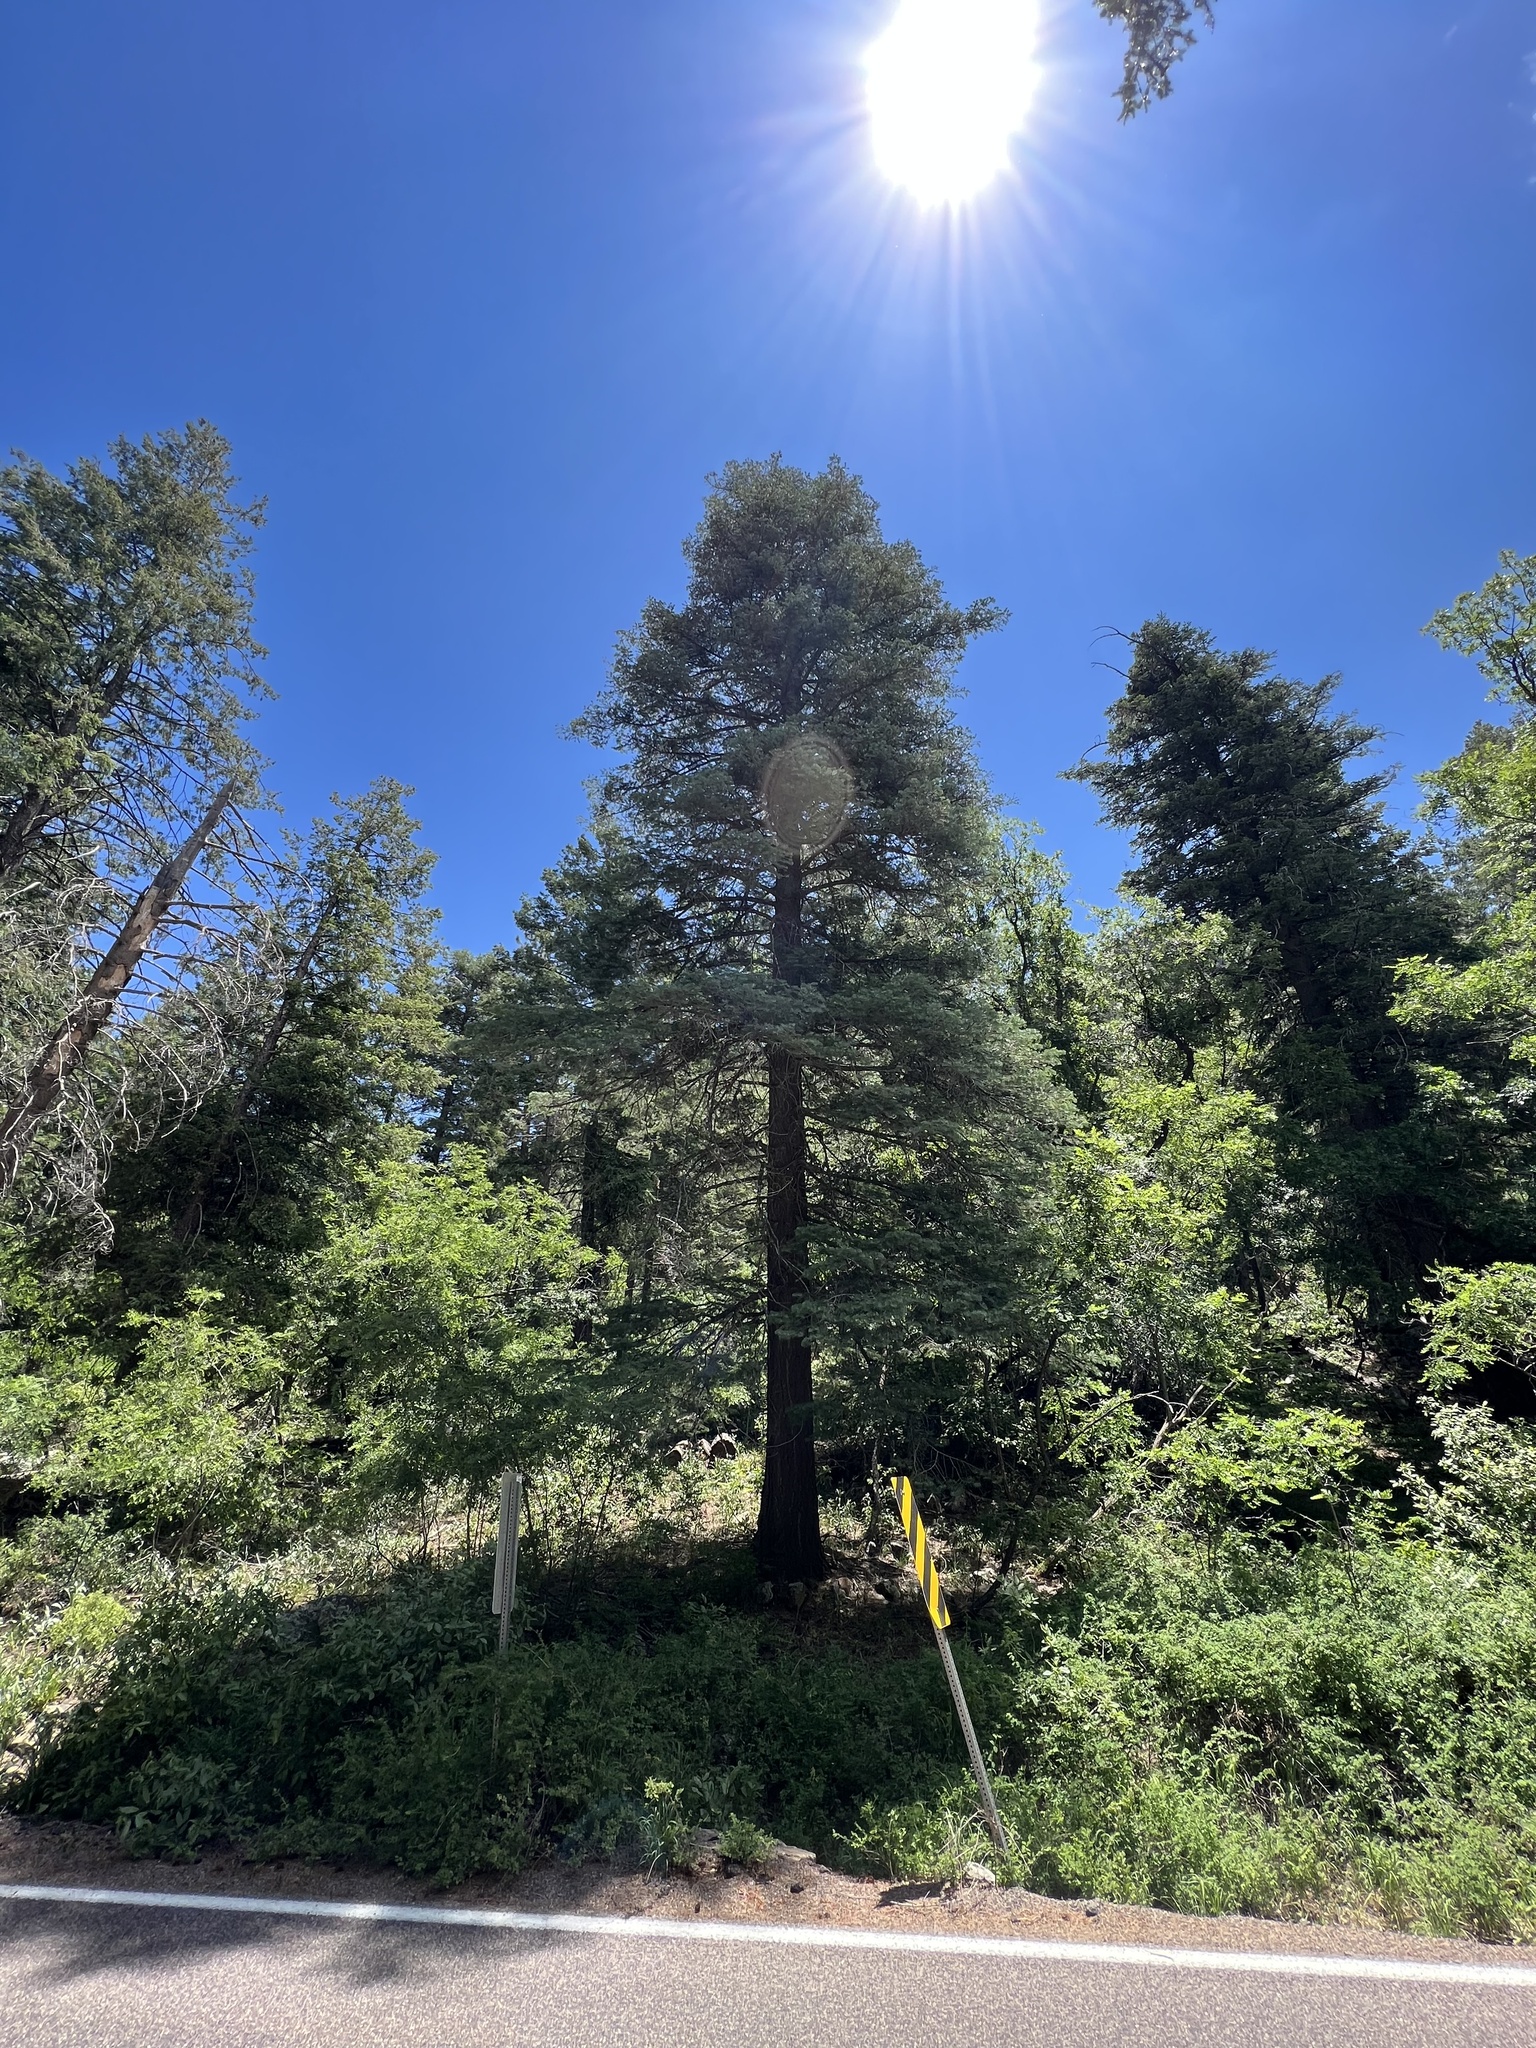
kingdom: Plantae
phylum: Tracheophyta
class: Pinopsida
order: Pinales
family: Pinaceae
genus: Abies
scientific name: Abies concolor
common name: Colorado fir
